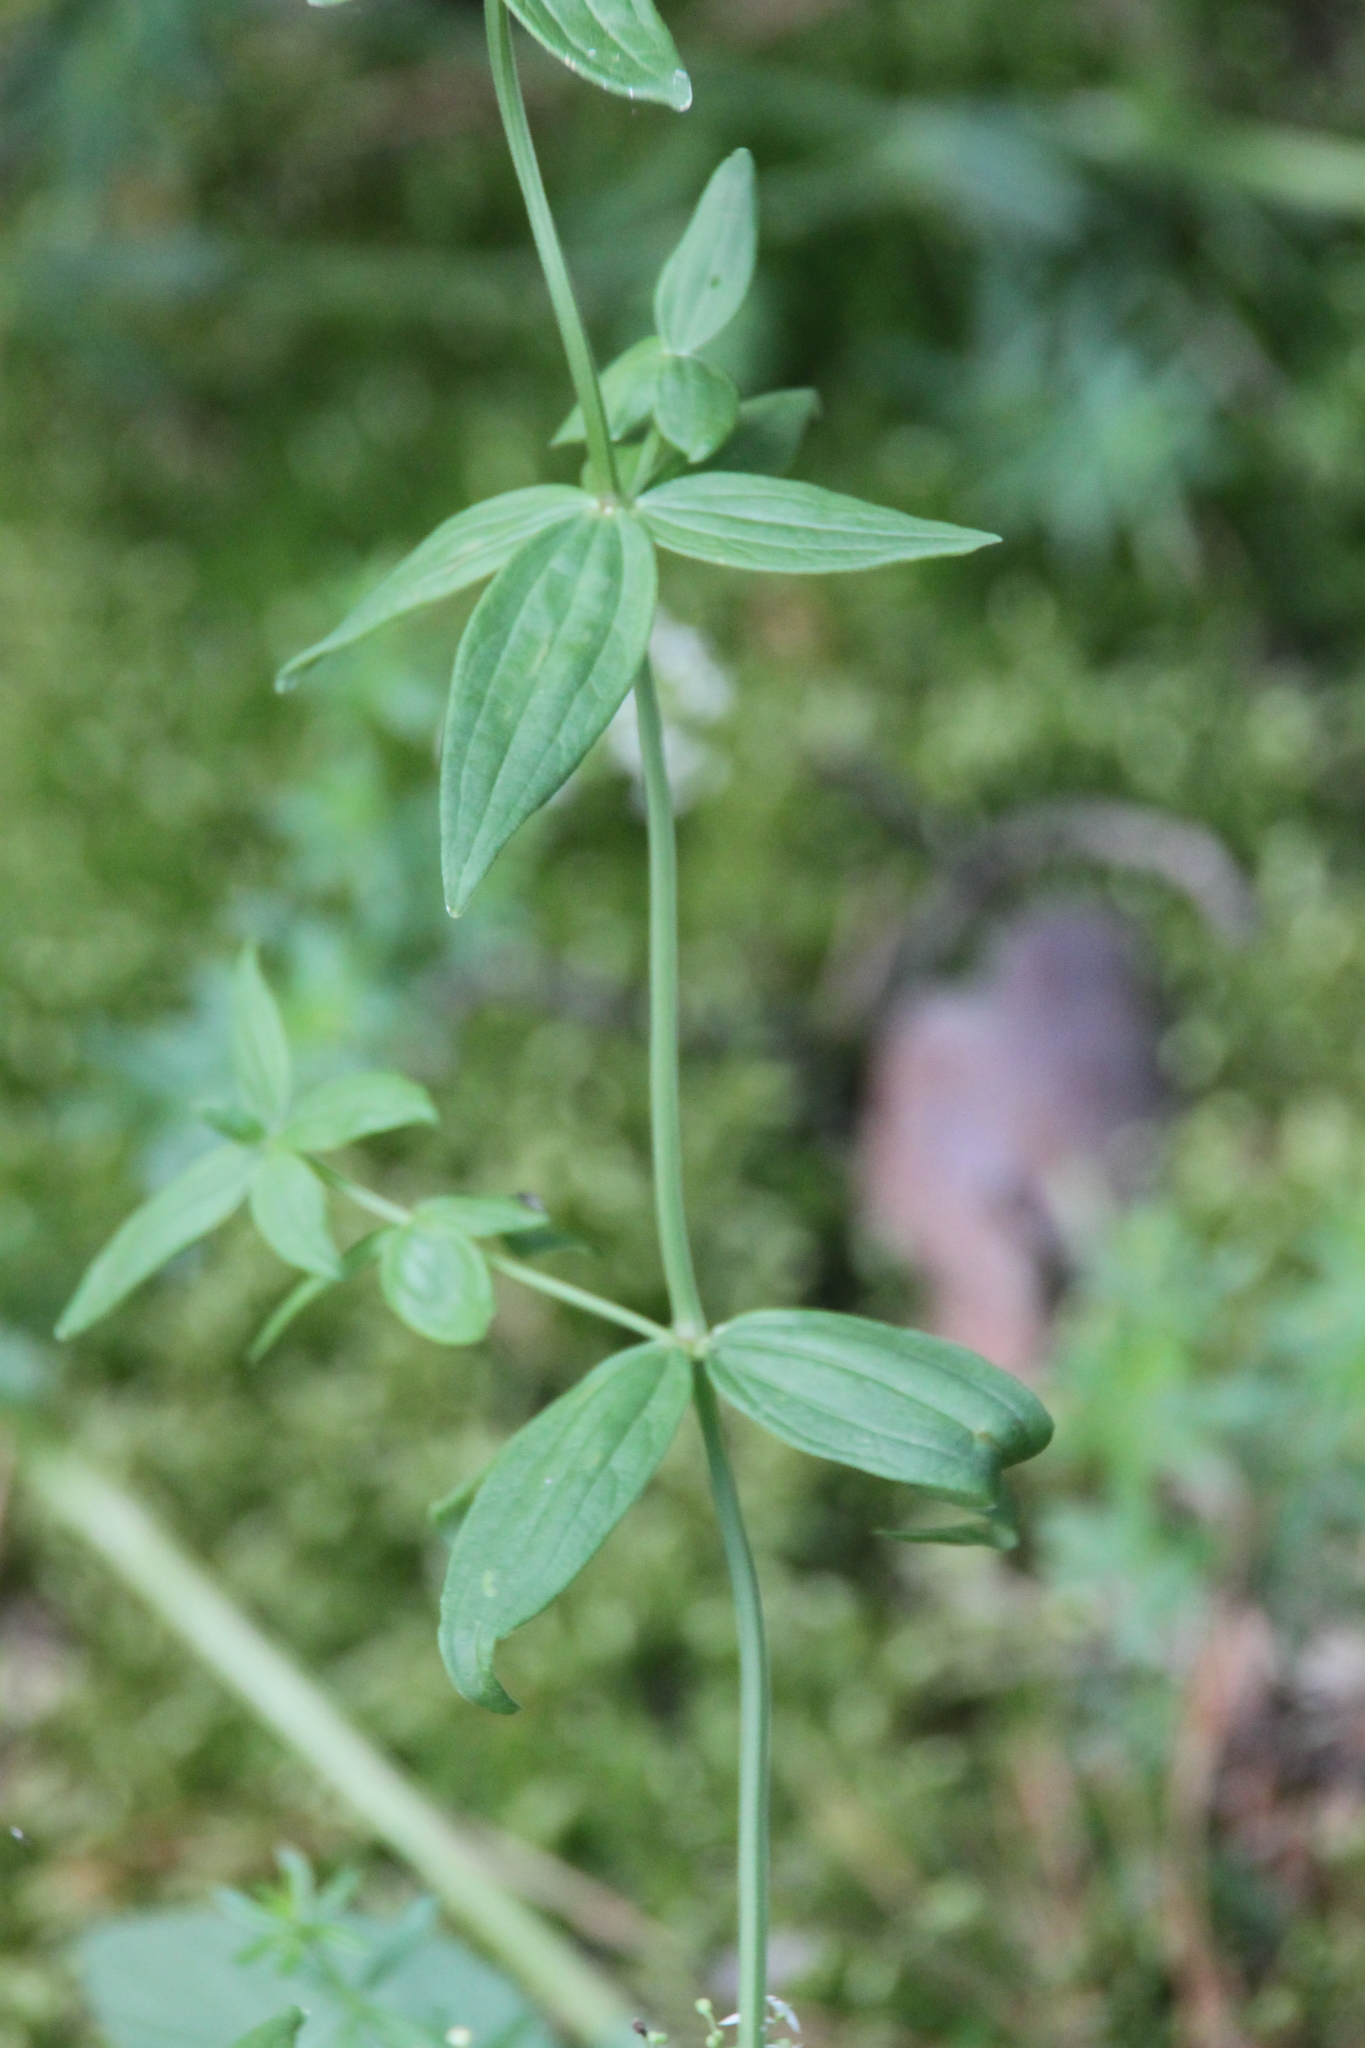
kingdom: Plantae
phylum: Tracheophyta
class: Magnoliopsida
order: Gentianales
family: Rubiaceae
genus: Galium
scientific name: Galium boreale
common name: Northern bedstraw
